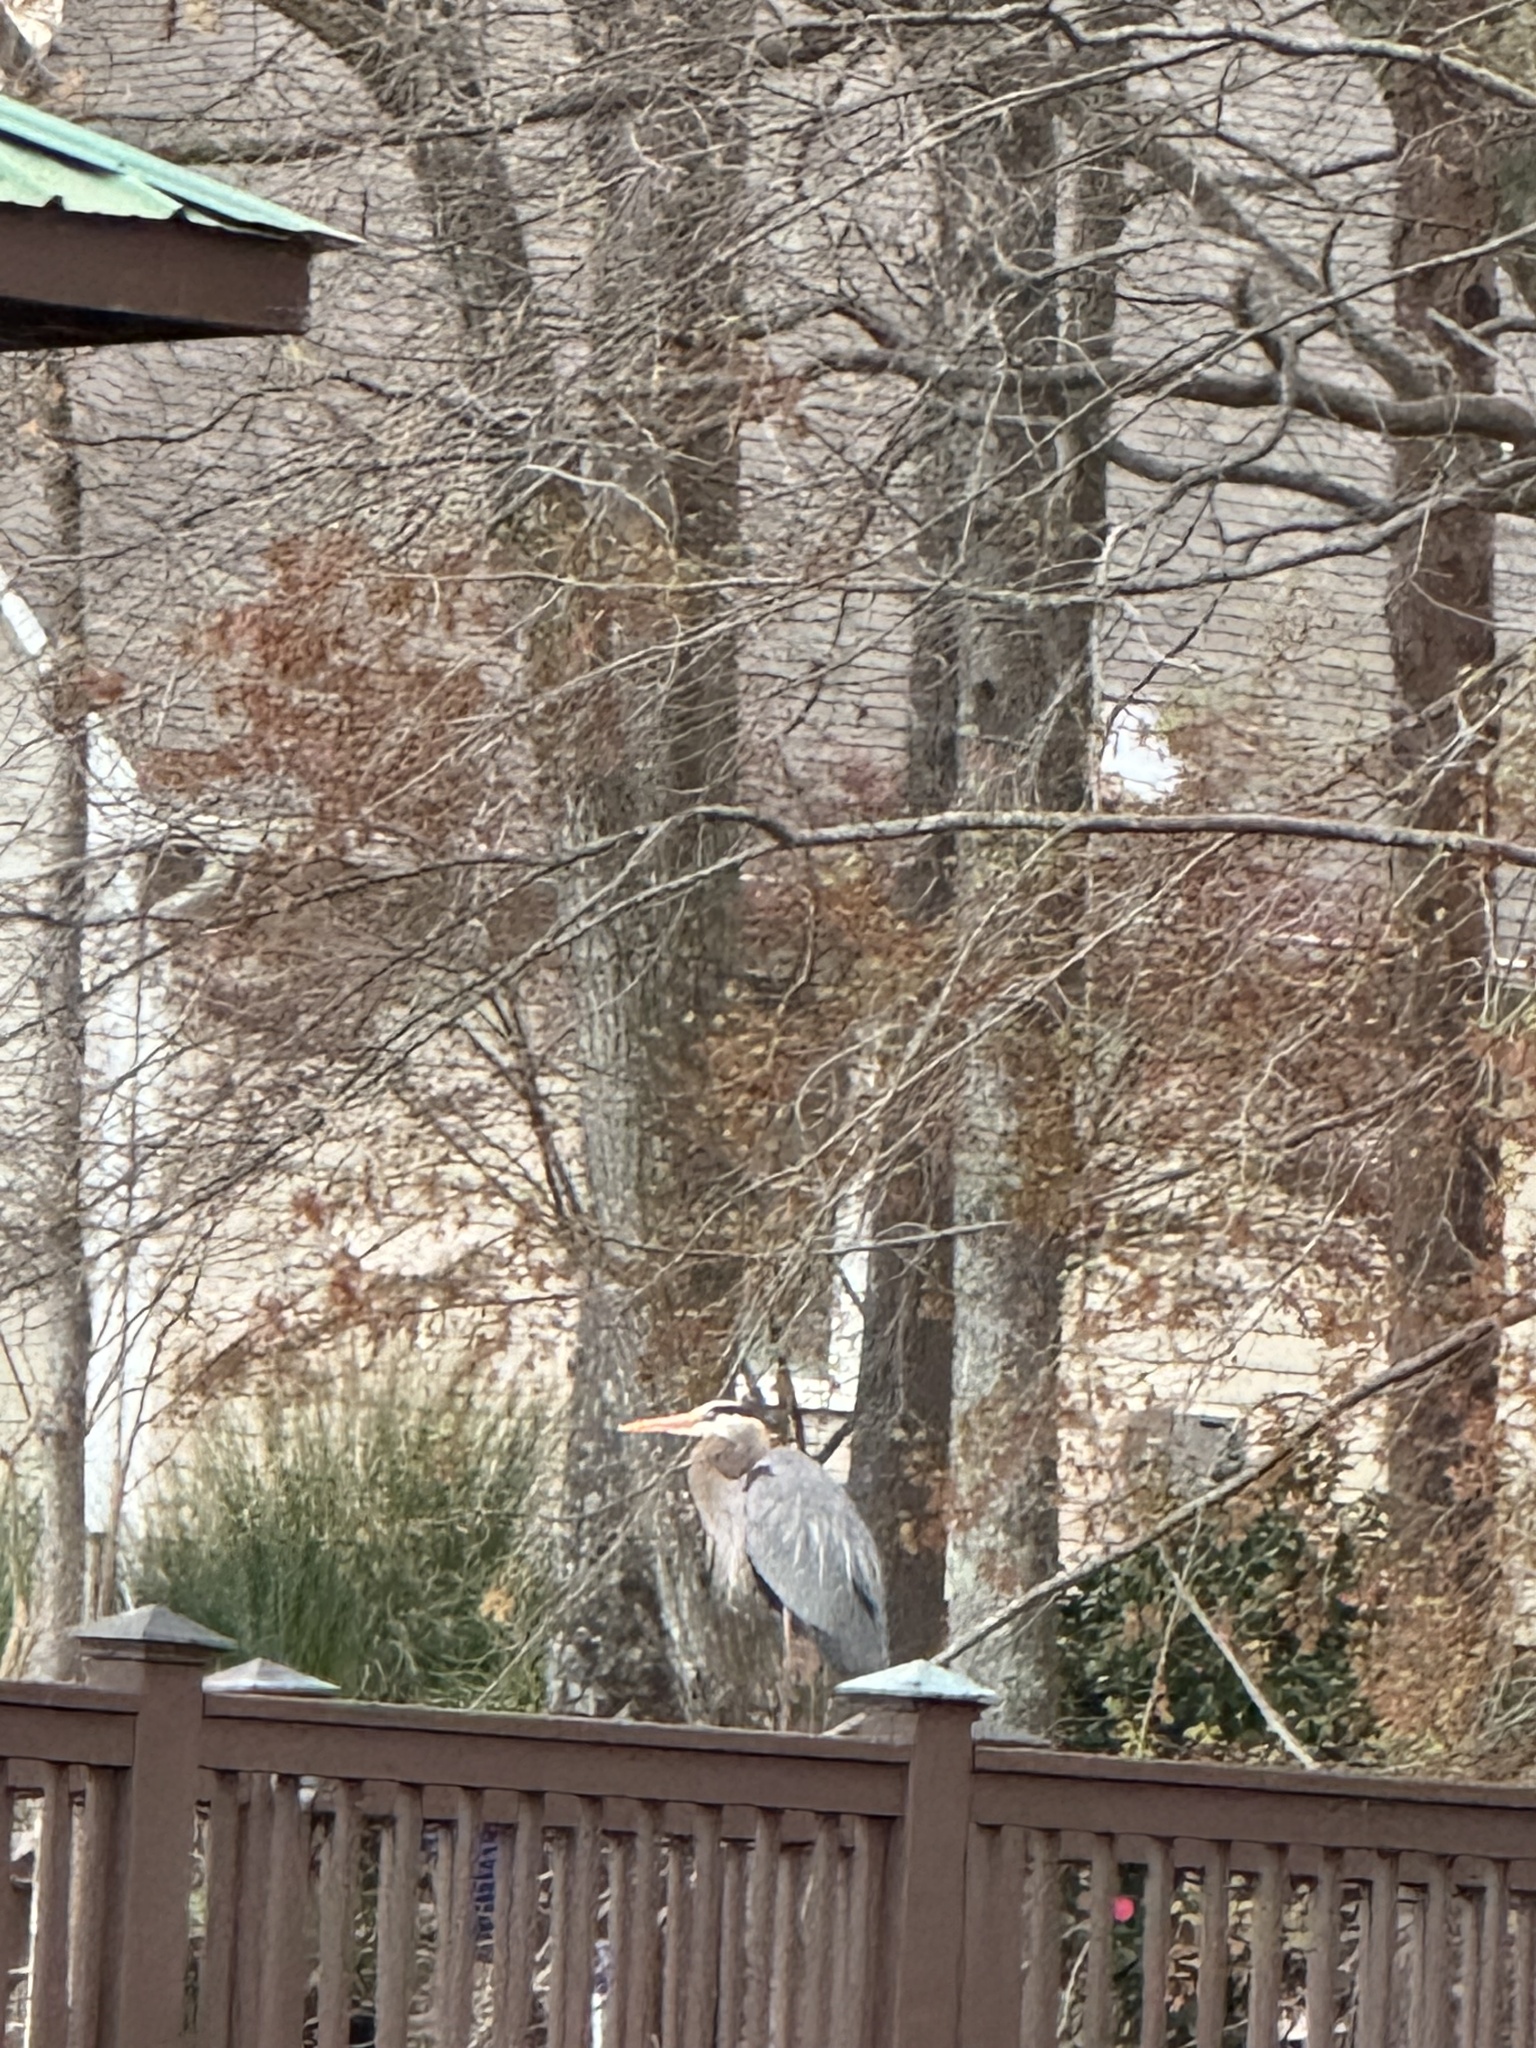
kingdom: Animalia
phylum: Chordata
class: Aves
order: Pelecaniformes
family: Ardeidae
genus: Ardea
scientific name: Ardea herodias
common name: Great blue heron
